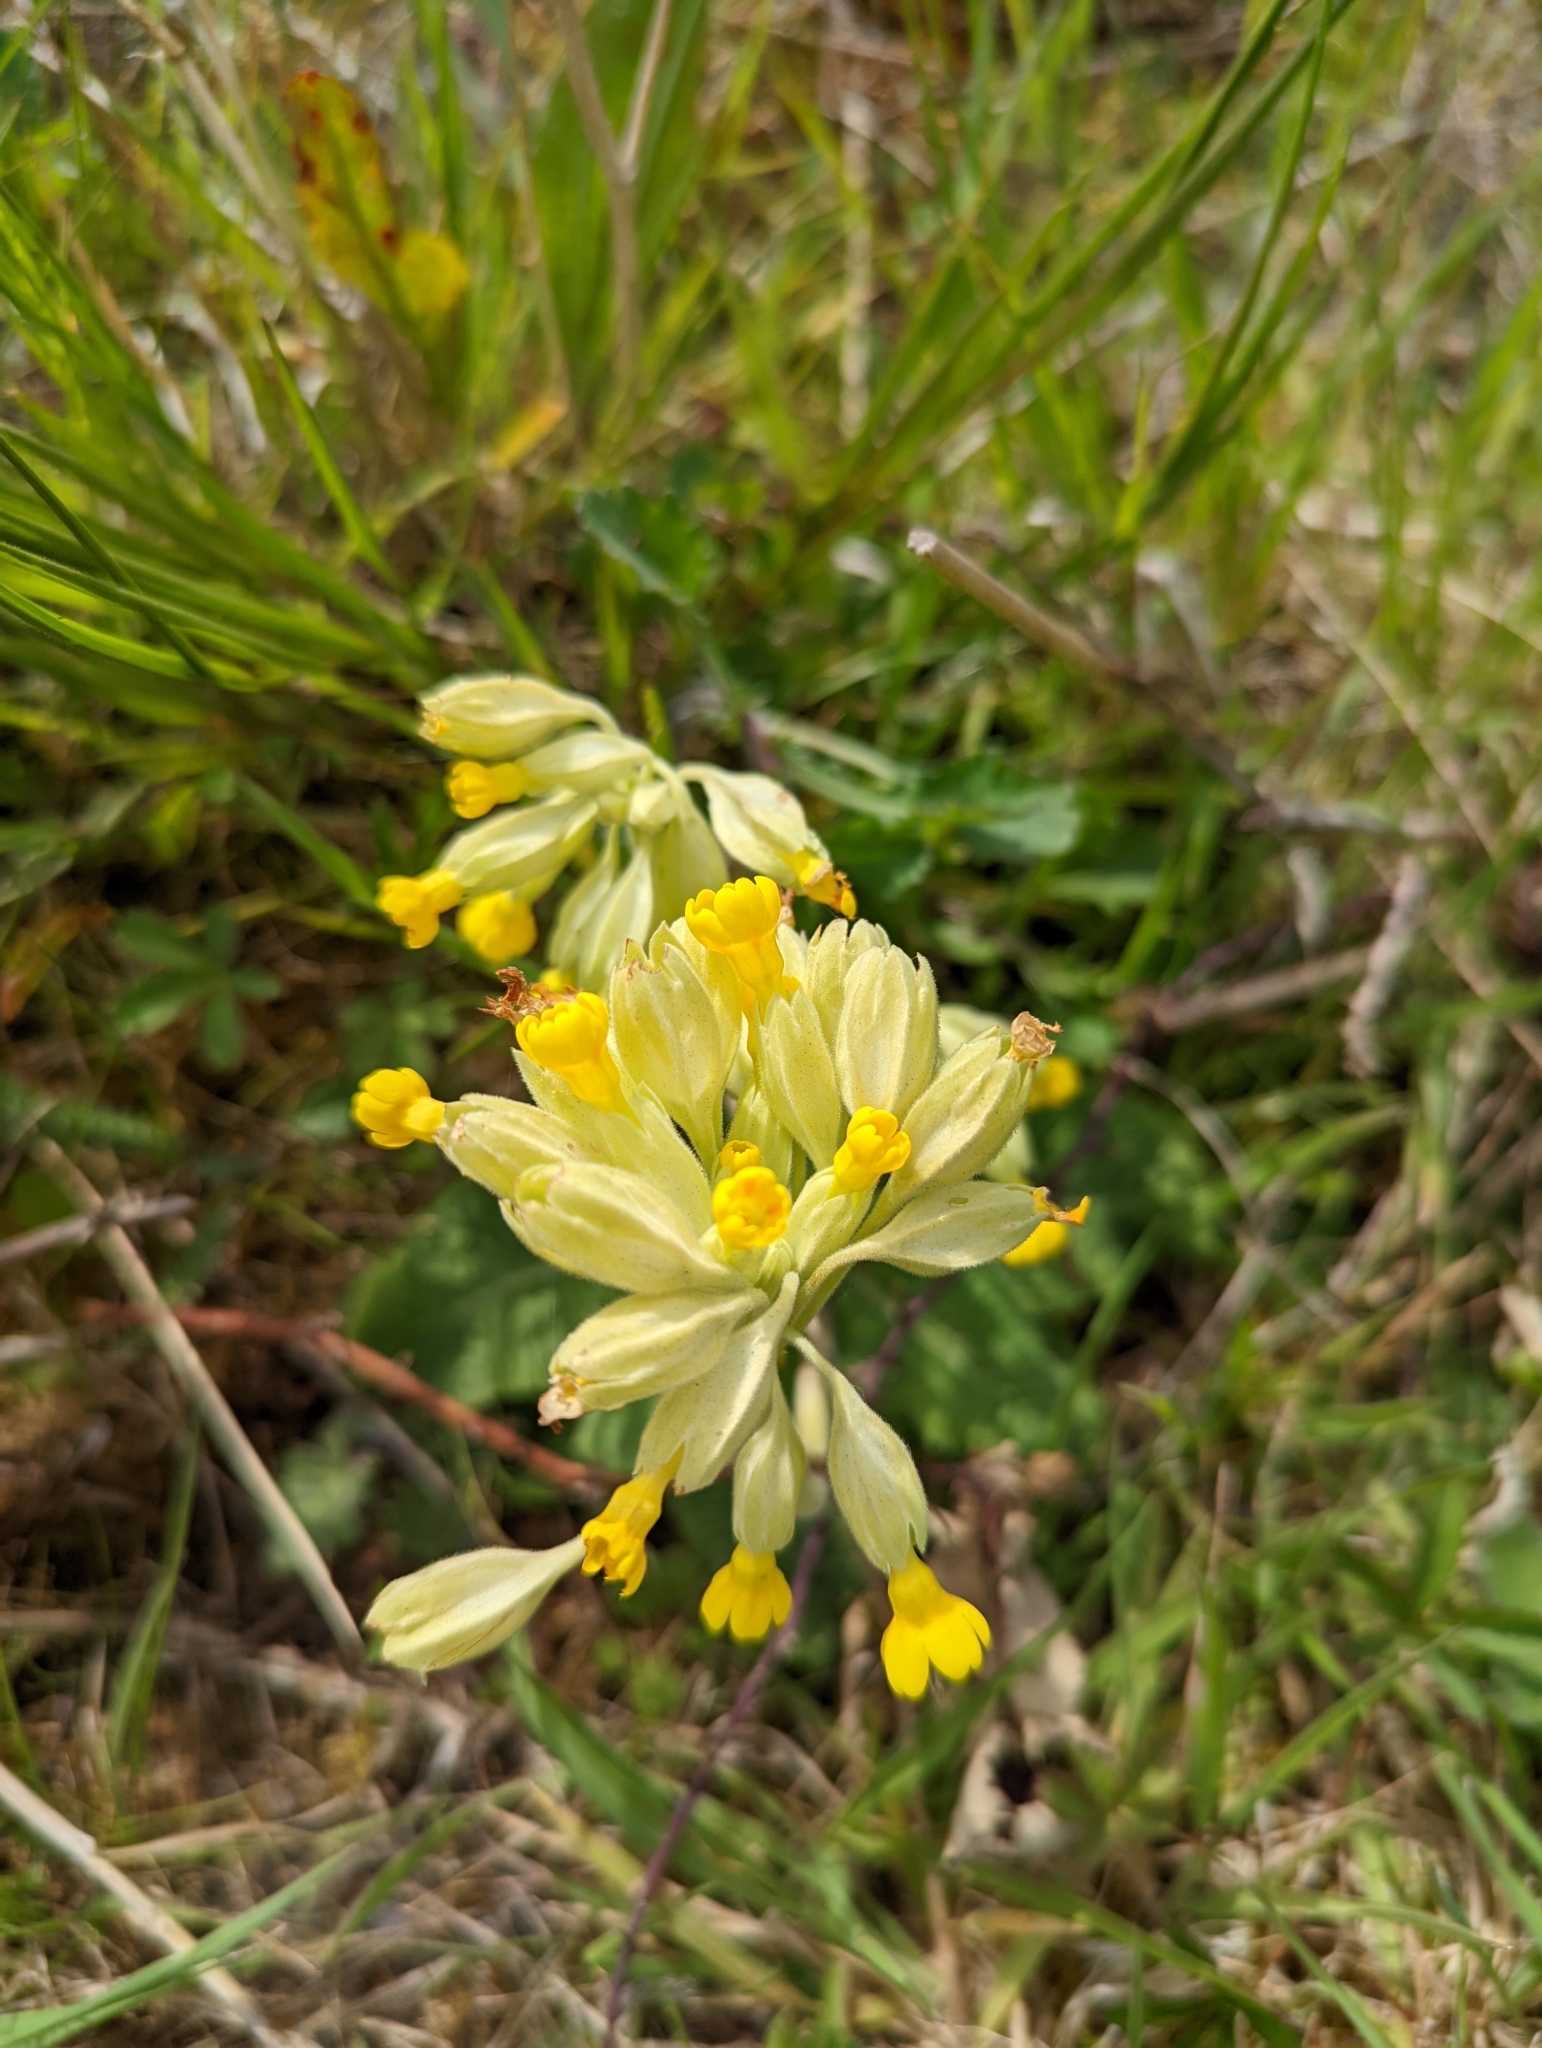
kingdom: Plantae
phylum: Tracheophyta
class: Magnoliopsida
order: Ericales
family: Primulaceae
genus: Primula
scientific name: Primula veris
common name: Cowslip
